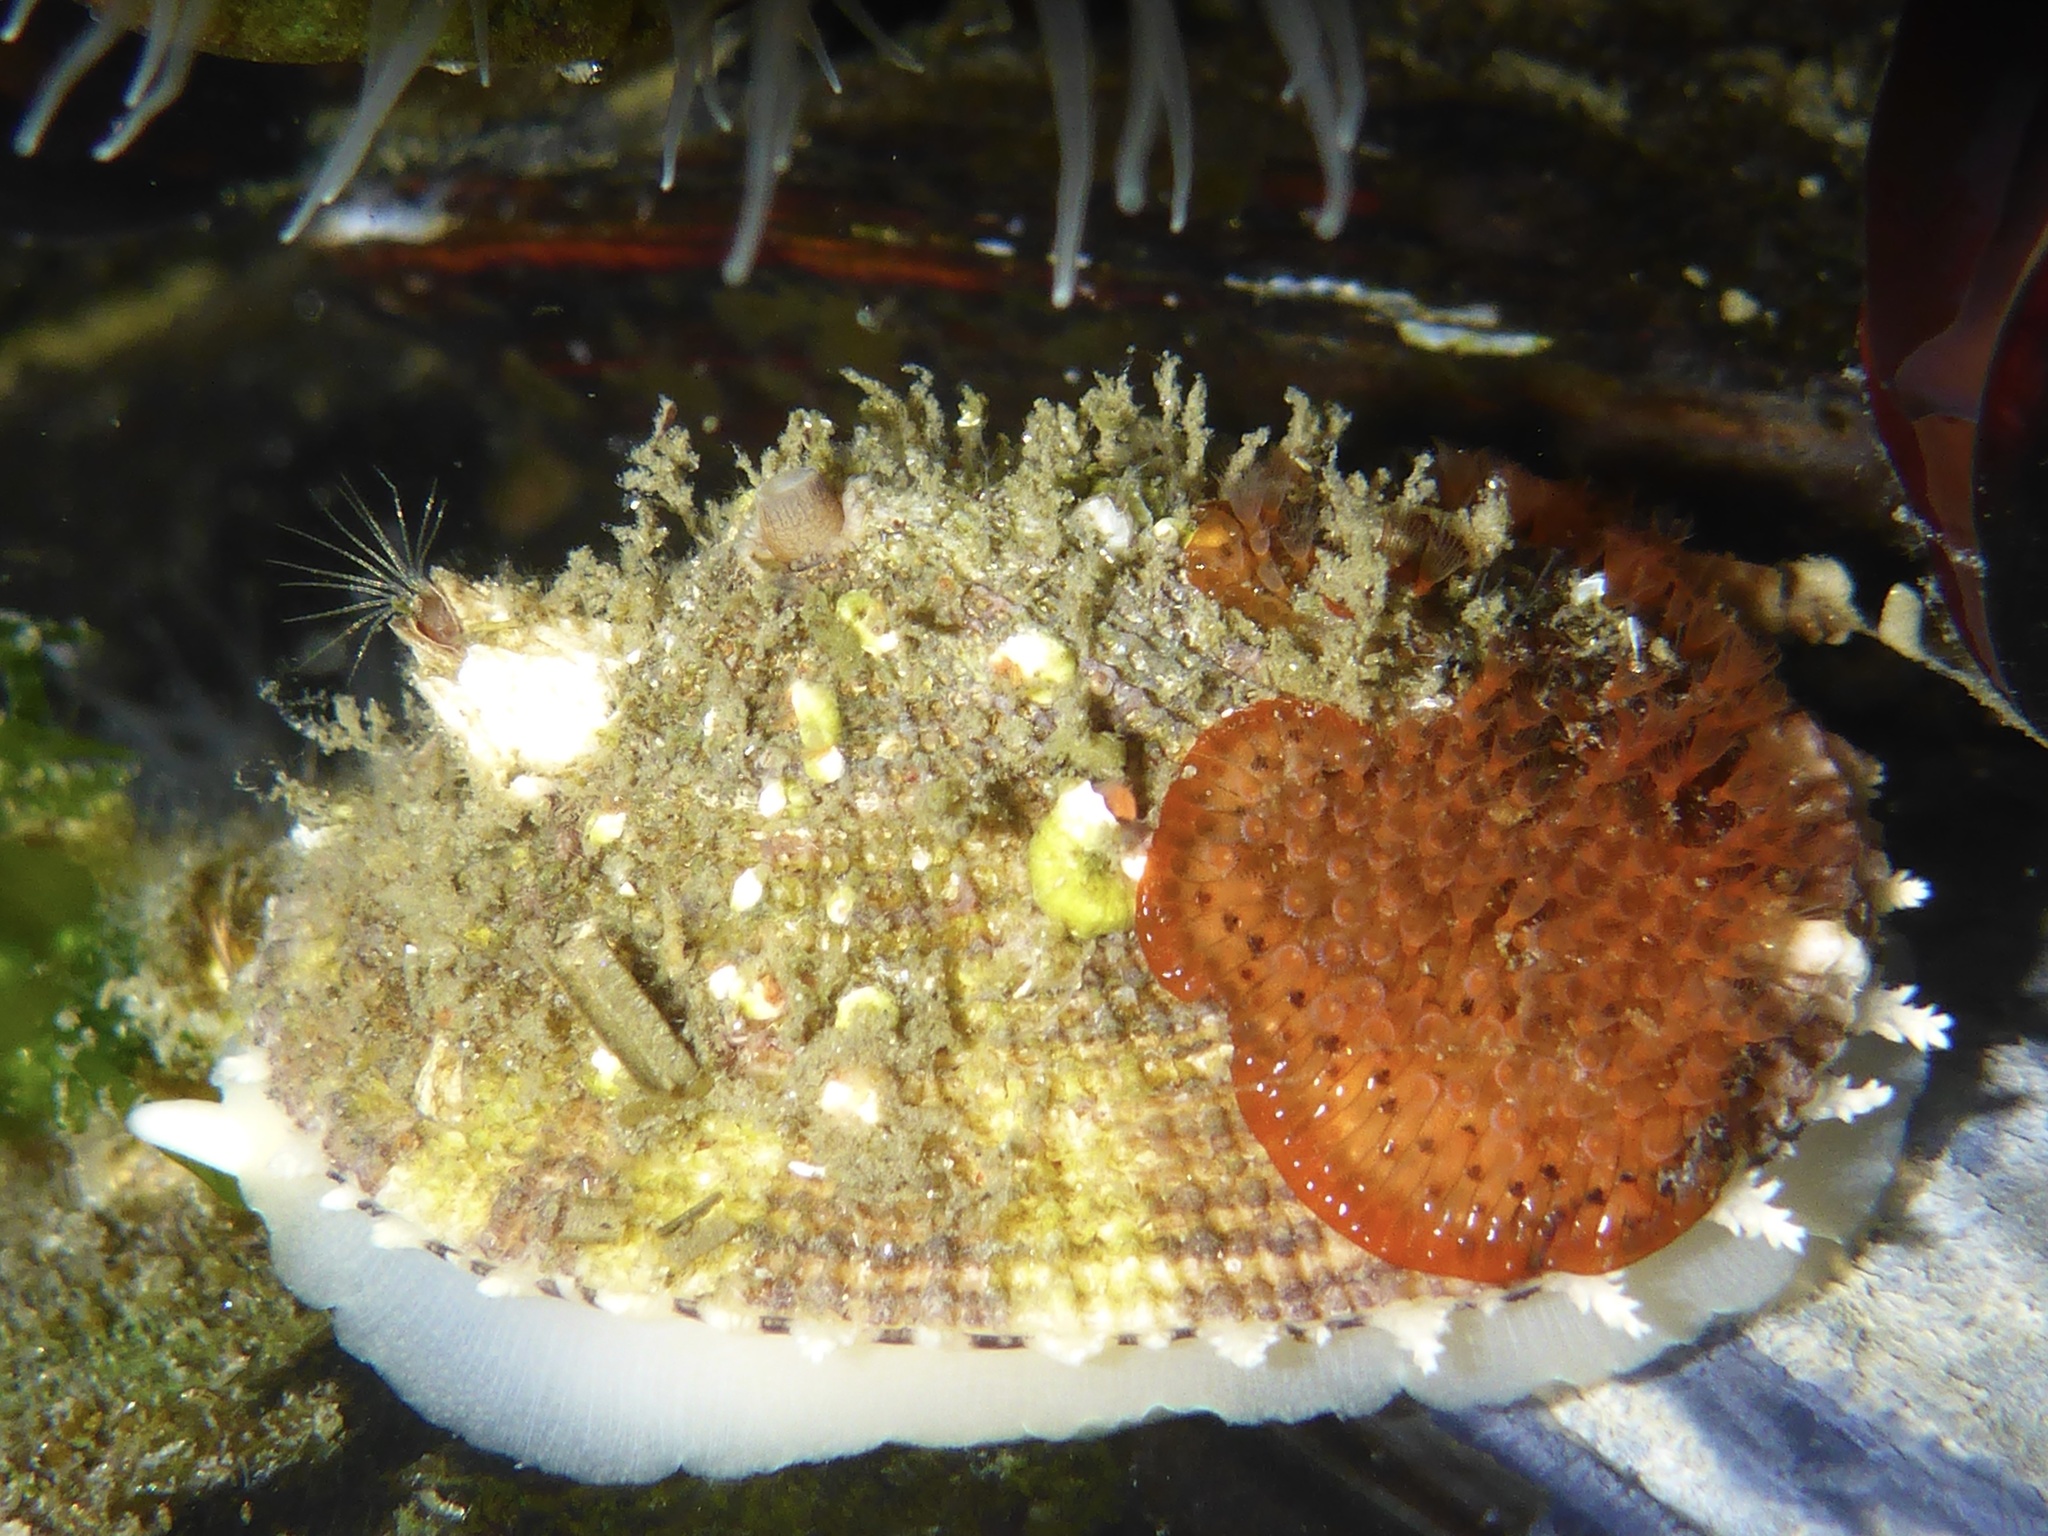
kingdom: Animalia
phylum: Mollusca
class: Gastropoda
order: Lepetellida
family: Fissurellidae
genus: Diodora
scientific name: Diodora aspera
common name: Rough keyhole limpet
